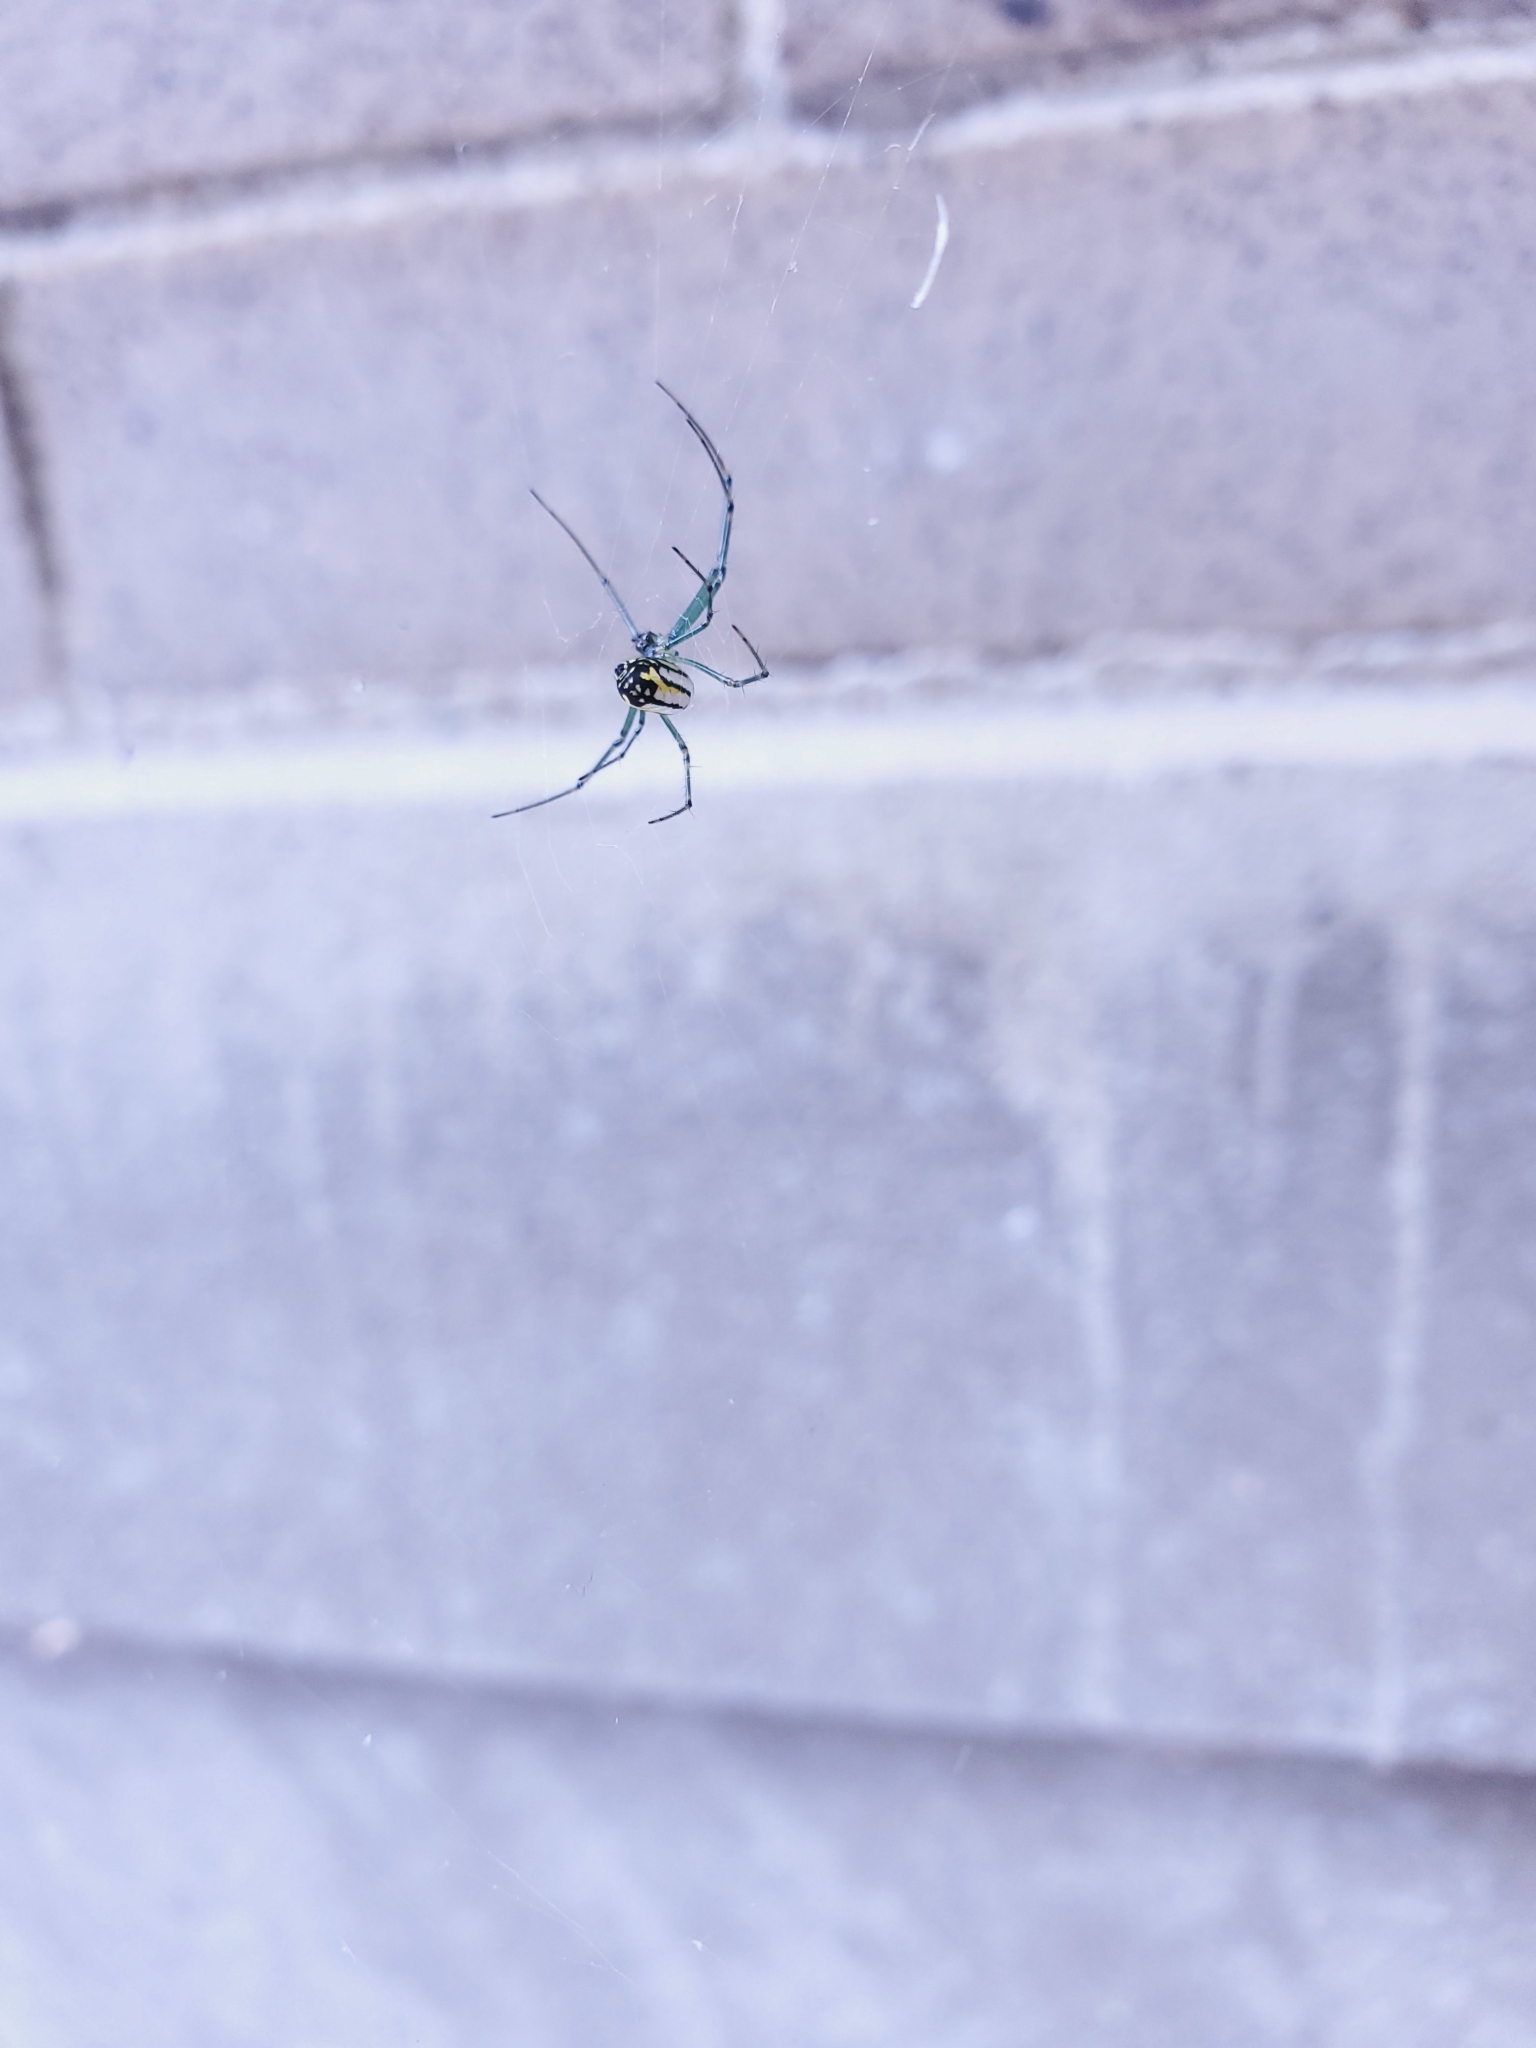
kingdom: Animalia
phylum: Arthropoda
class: Arachnida
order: Araneae
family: Tetragnathidae
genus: Leucauge
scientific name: Leucauge venusta
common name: Longjawed orb weavers
